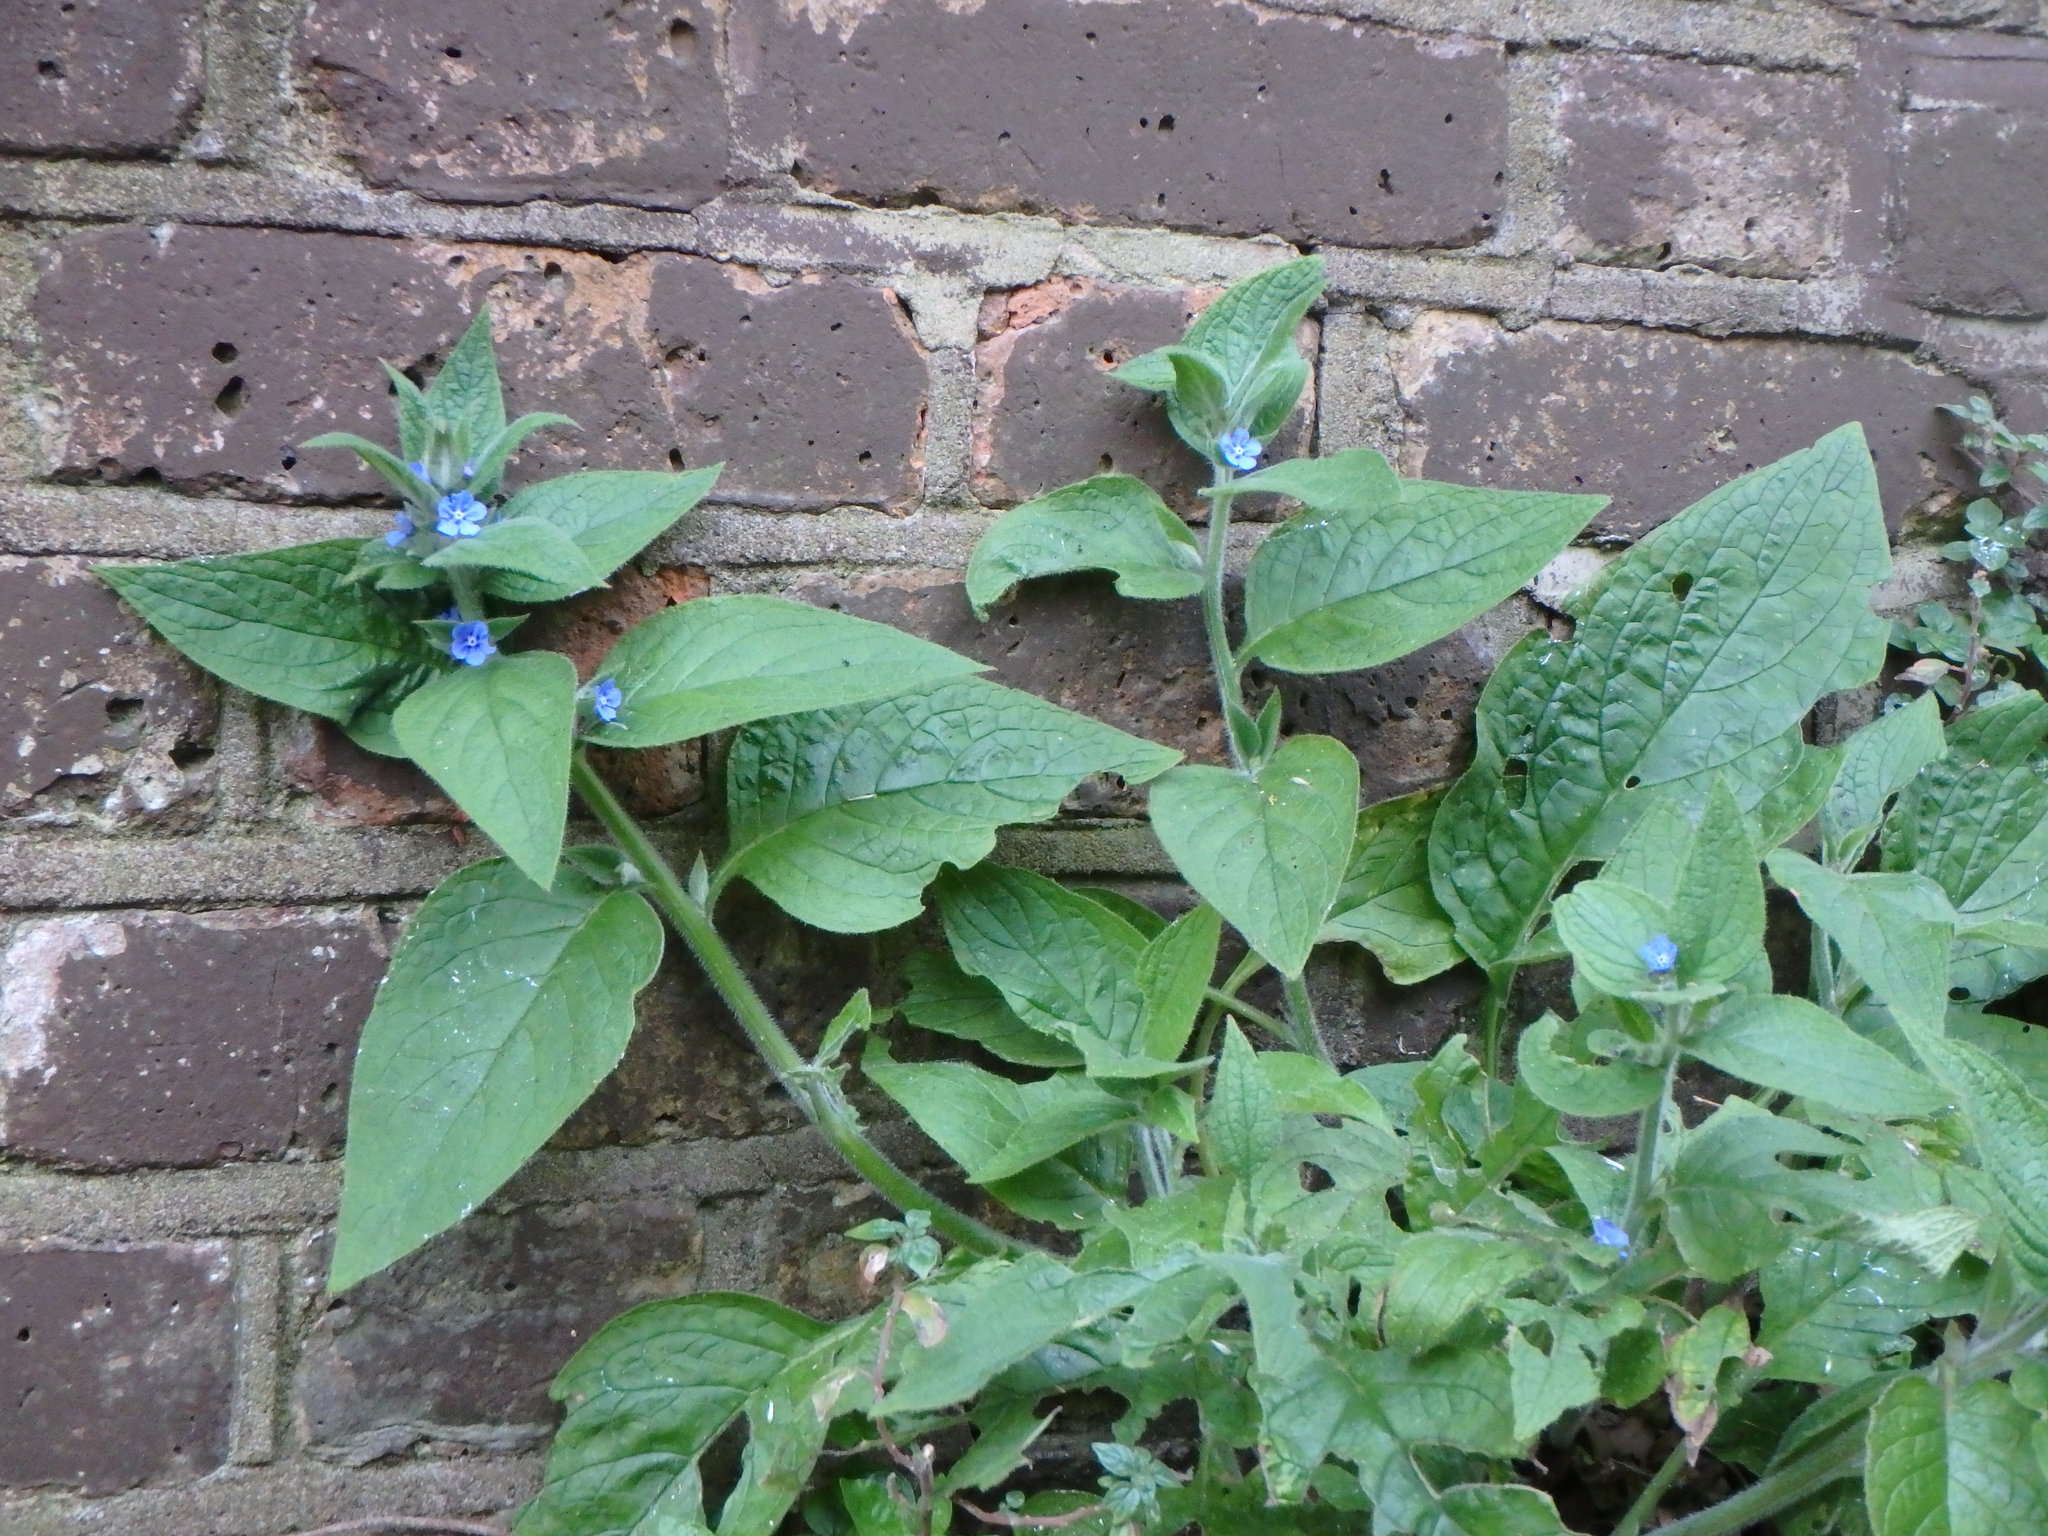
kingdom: Plantae
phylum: Tracheophyta
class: Magnoliopsida
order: Boraginales
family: Boraginaceae
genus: Pentaglottis
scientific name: Pentaglottis sempervirens
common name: Green alkanet
